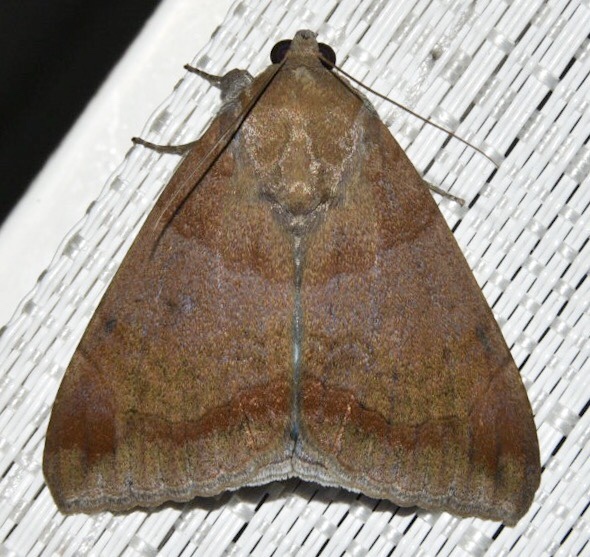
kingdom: Animalia
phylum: Arthropoda
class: Insecta
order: Lepidoptera
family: Erebidae
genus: Achaea
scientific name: Achaea janata
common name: Croton caterpillar
